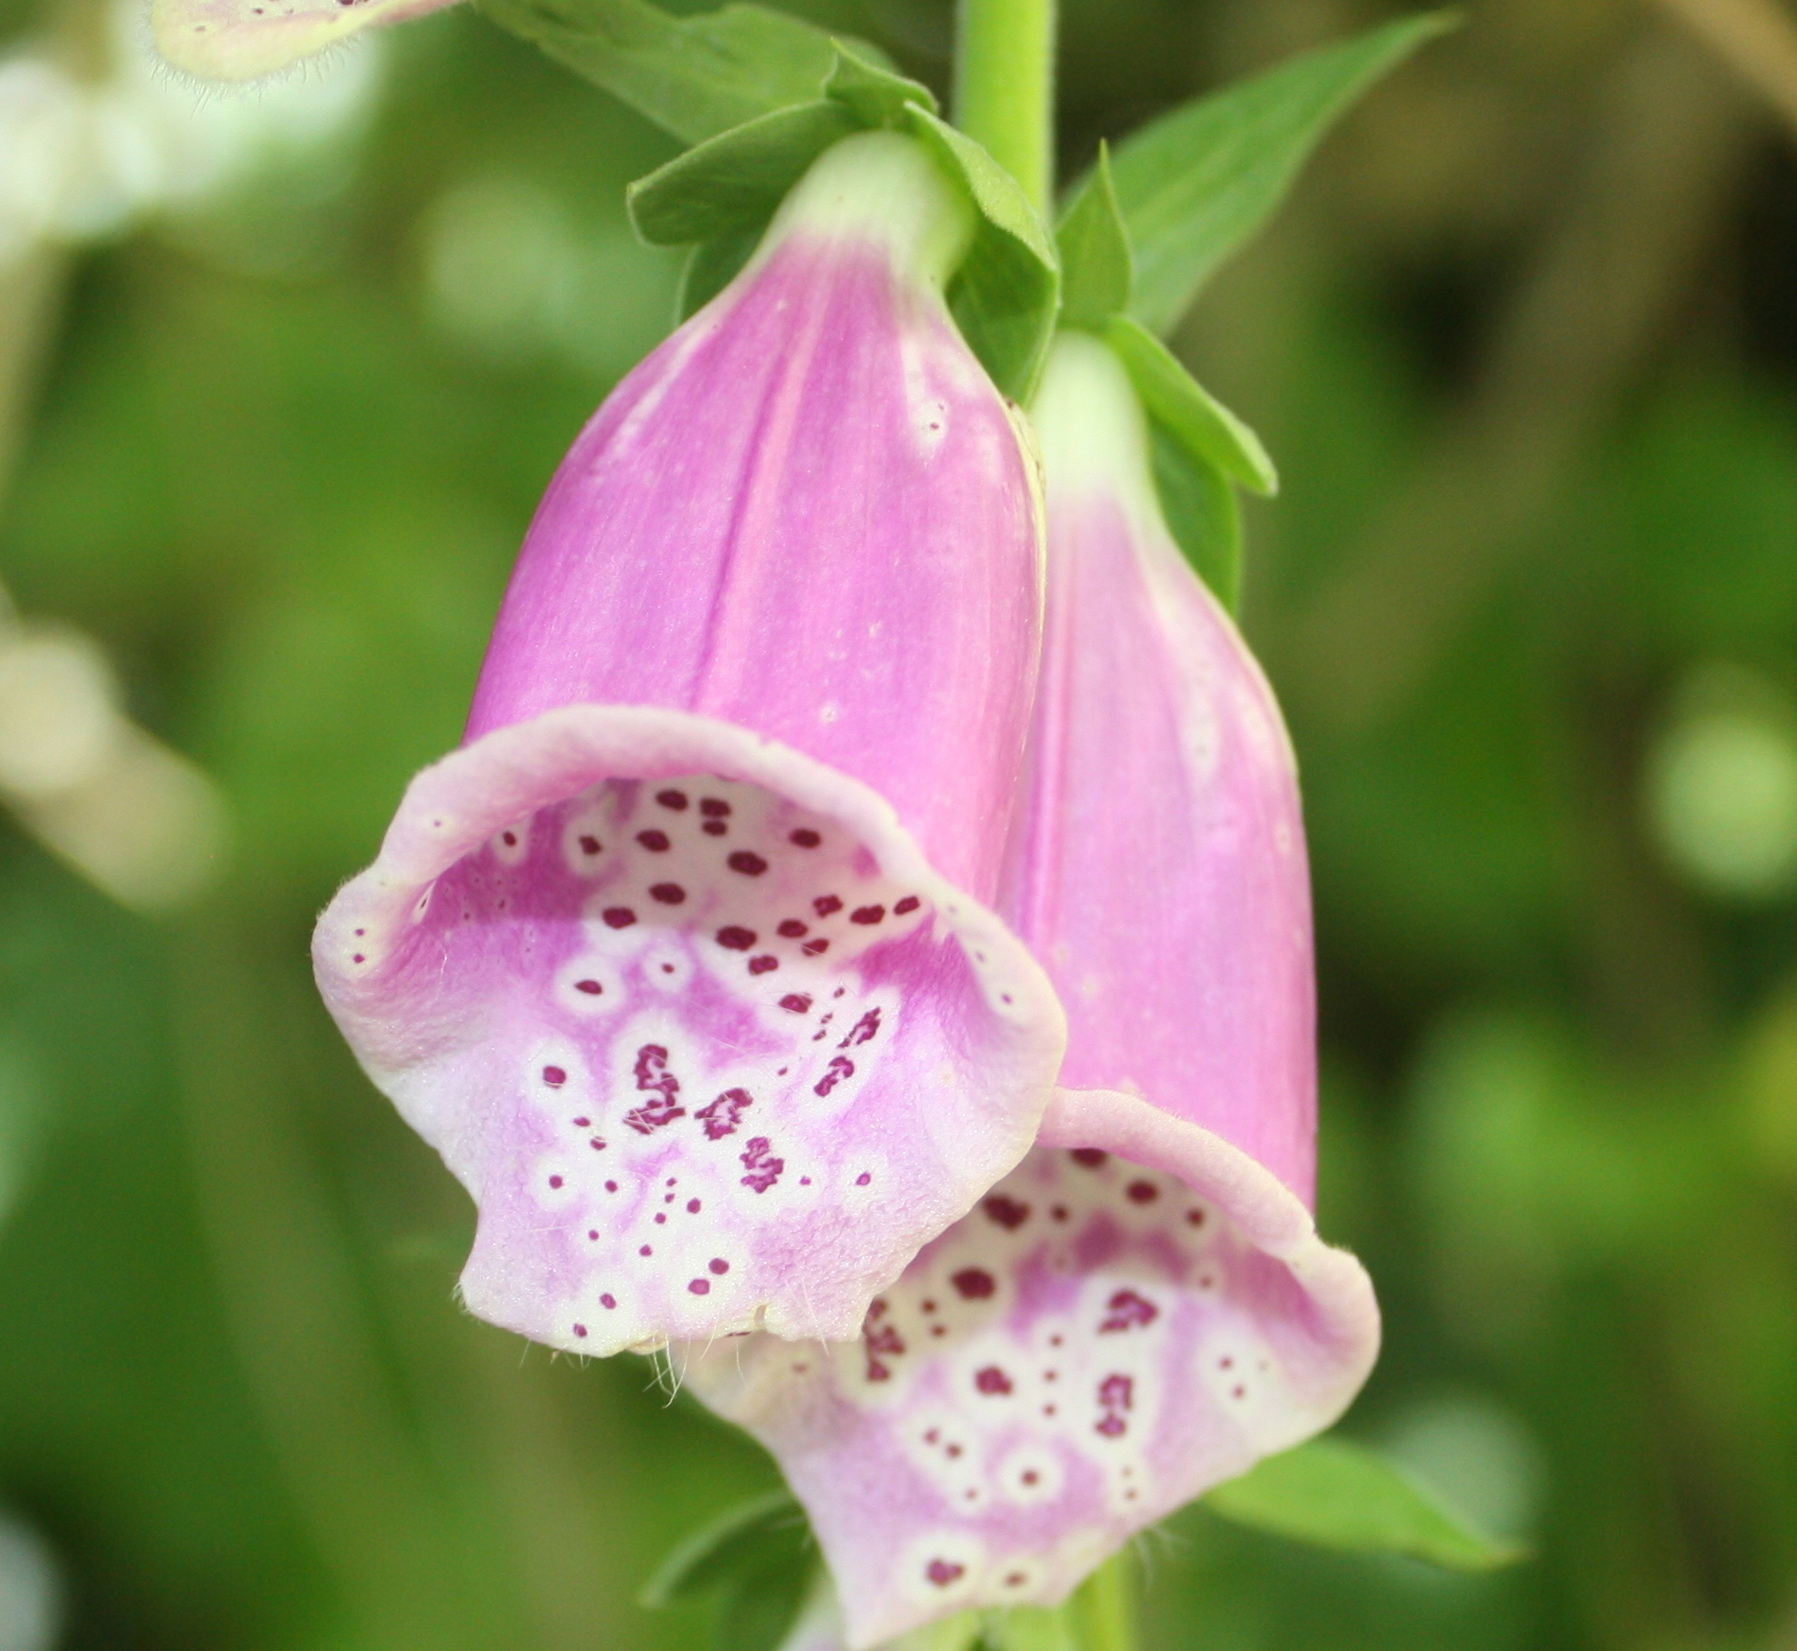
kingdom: Plantae
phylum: Tracheophyta
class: Magnoliopsida
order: Lamiales
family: Plantaginaceae
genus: Digitalis
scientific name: Digitalis purpurea
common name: Foxglove
